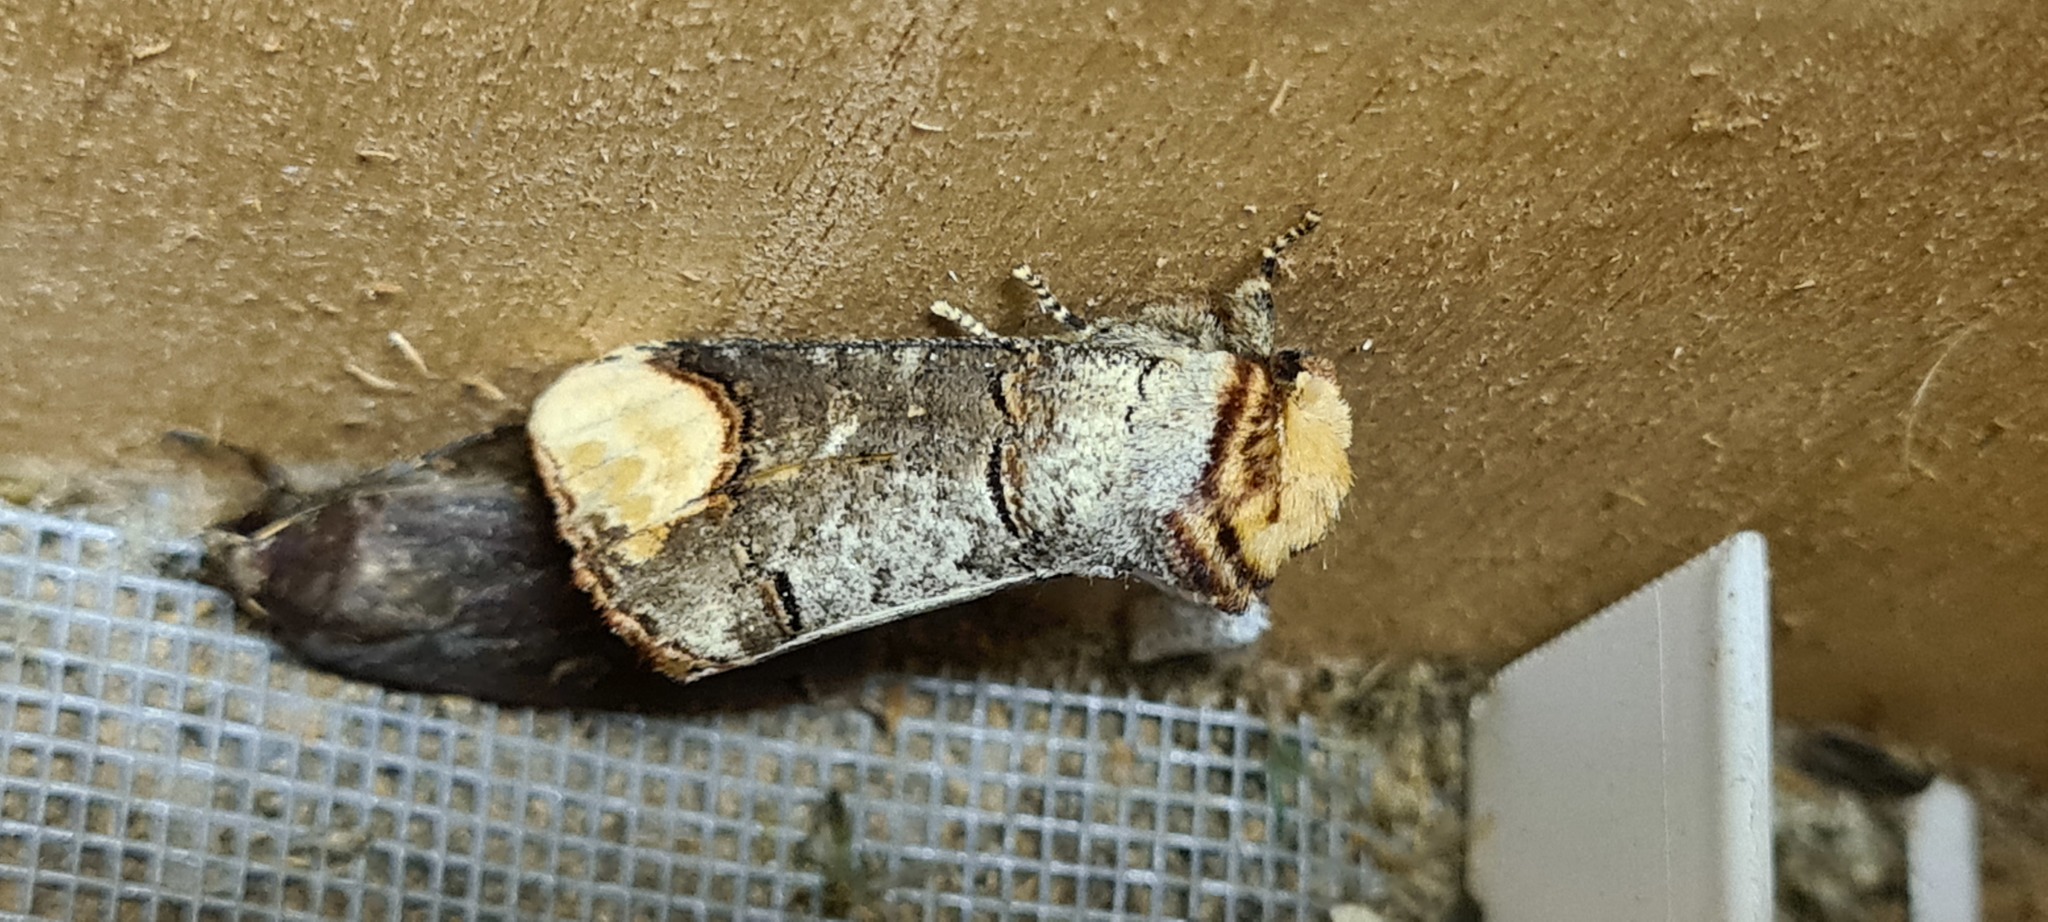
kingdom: Animalia
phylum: Arthropoda
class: Insecta
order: Lepidoptera
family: Notodontidae
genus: Phalera
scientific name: Phalera bucephala
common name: Buff-tip
